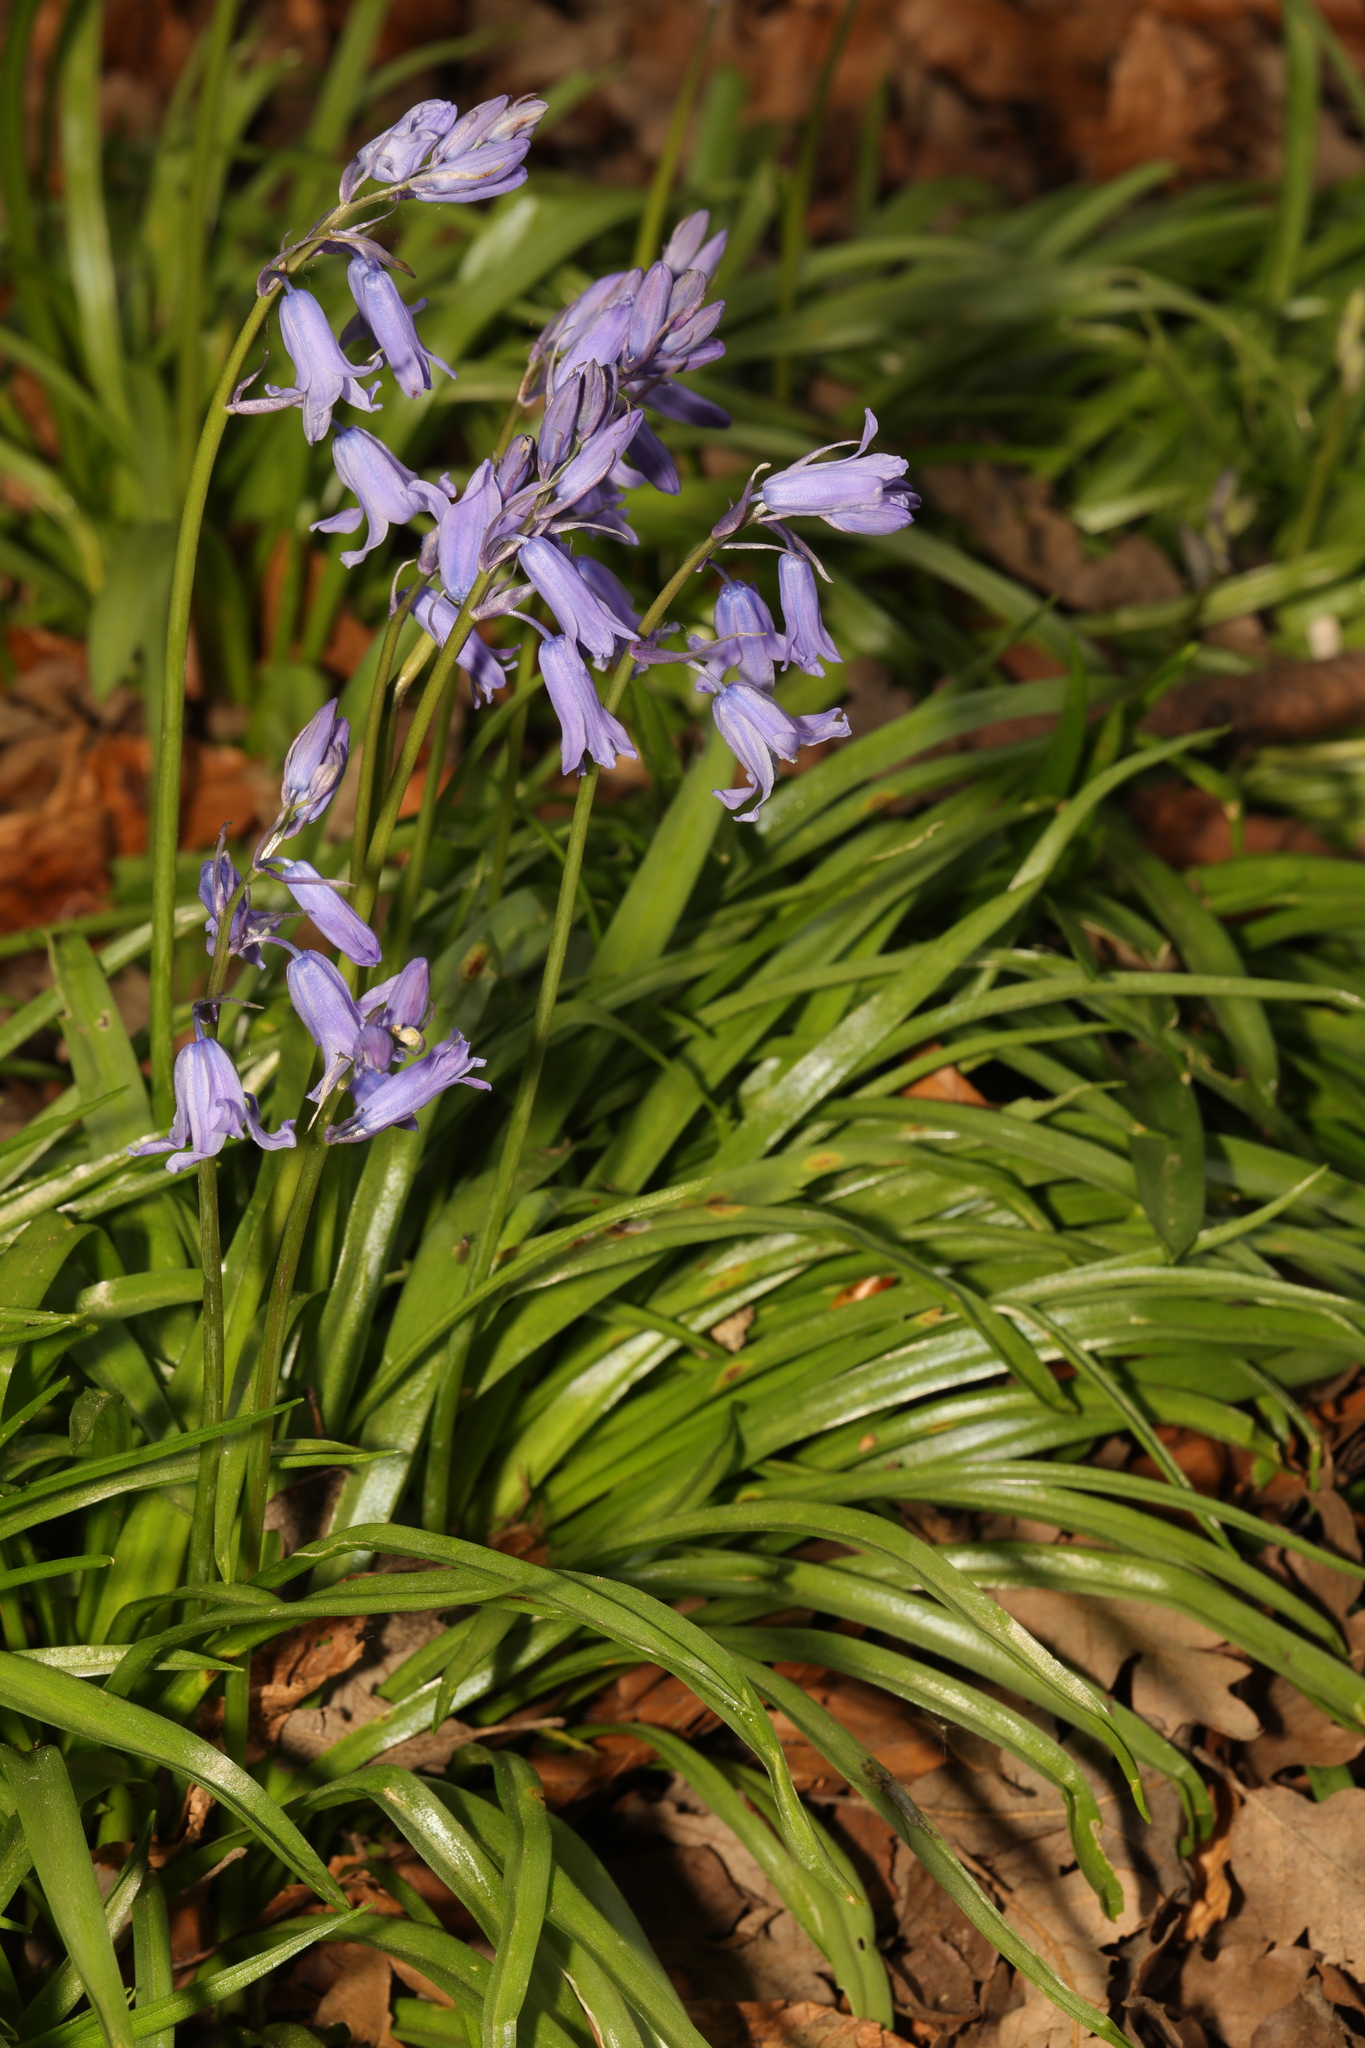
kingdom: Plantae
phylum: Tracheophyta
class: Liliopsida
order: Asparagales
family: Asparagaceae
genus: Hyacinthoides
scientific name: Hyacinthoides massartiana
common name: Hyacinthoides
